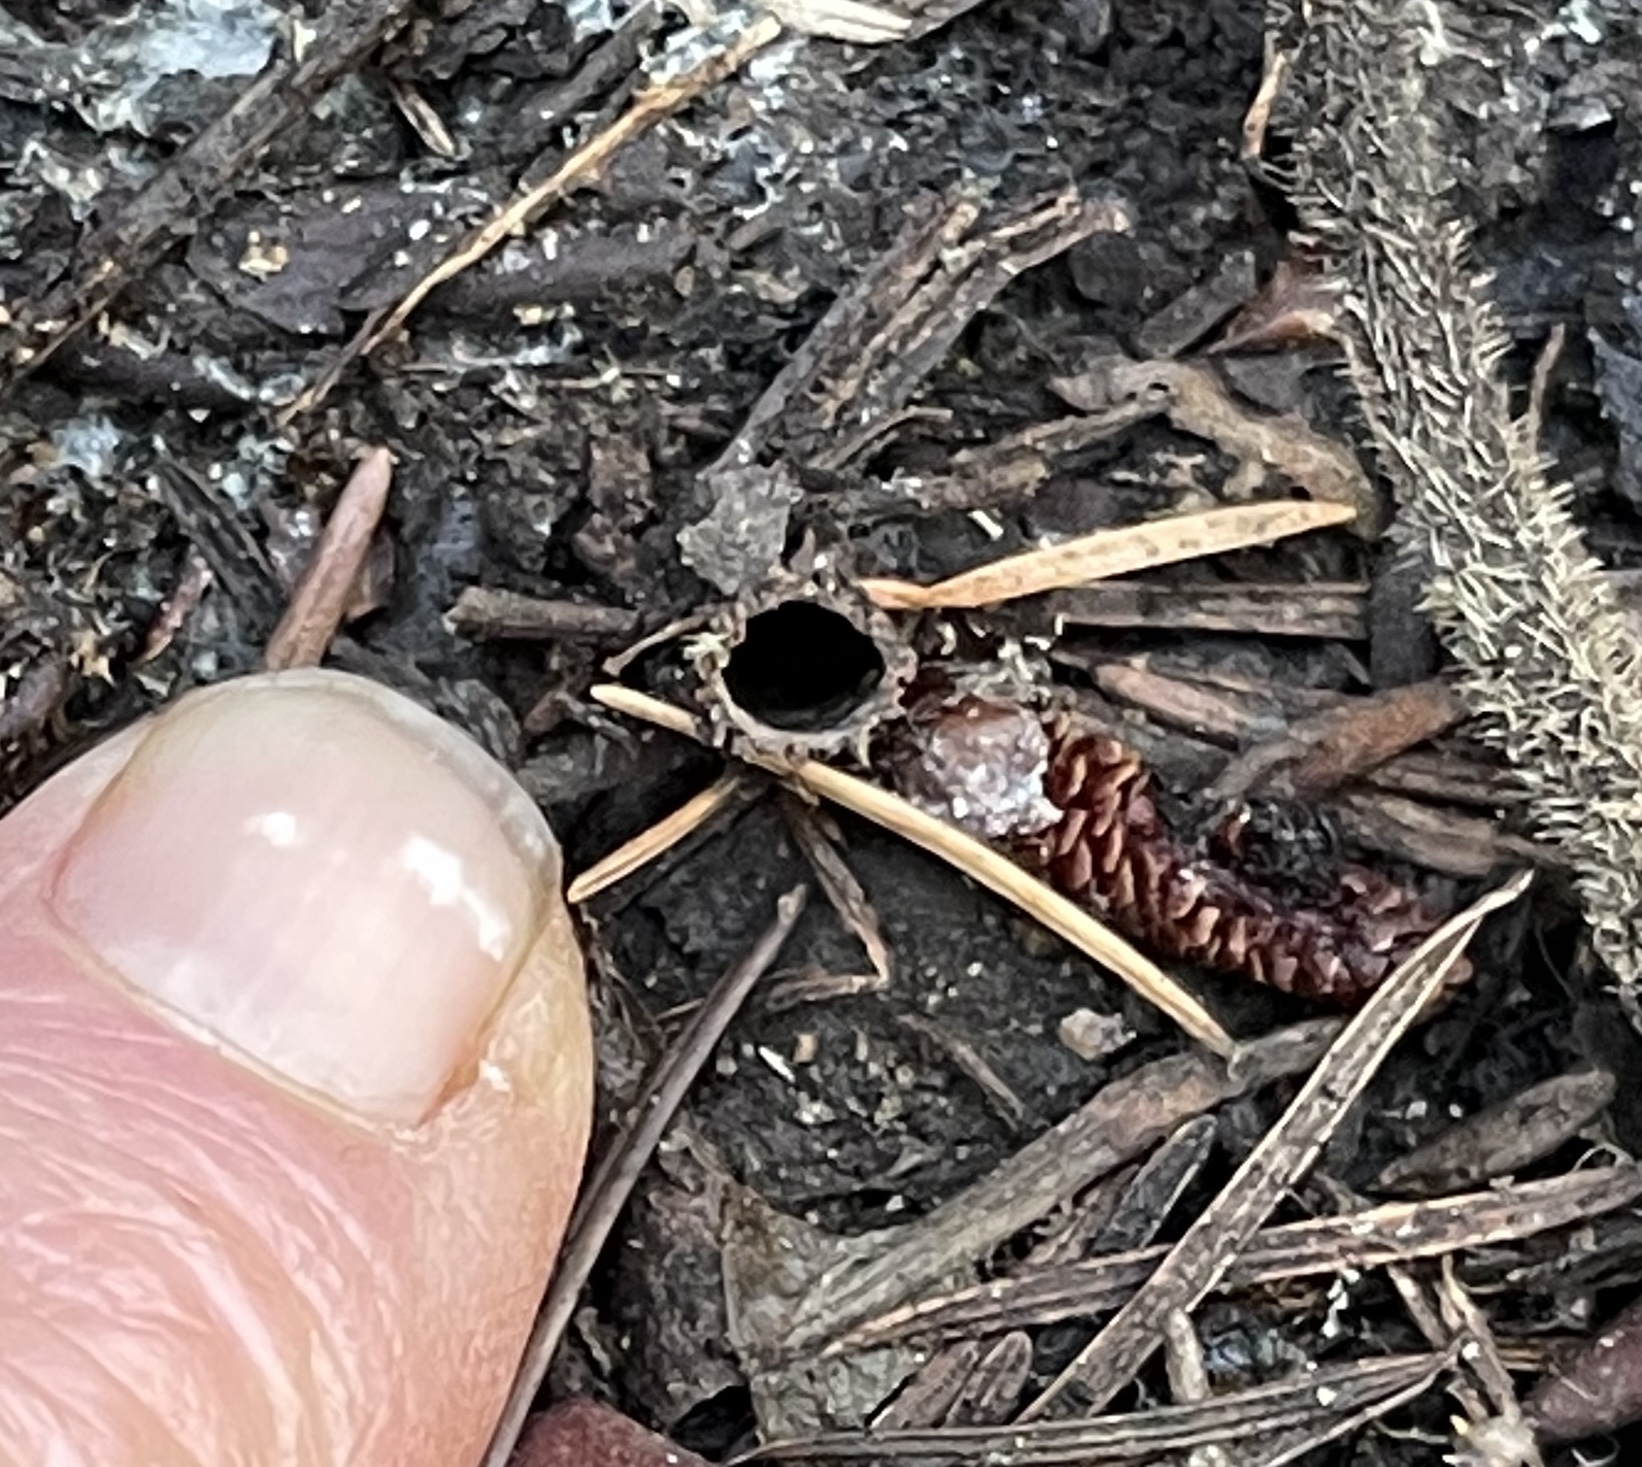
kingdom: Animalia
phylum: Arthropoda
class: Arachnida
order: Araneae
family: Antrodiaetidae
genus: Atypoides
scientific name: Atypoides riversi
